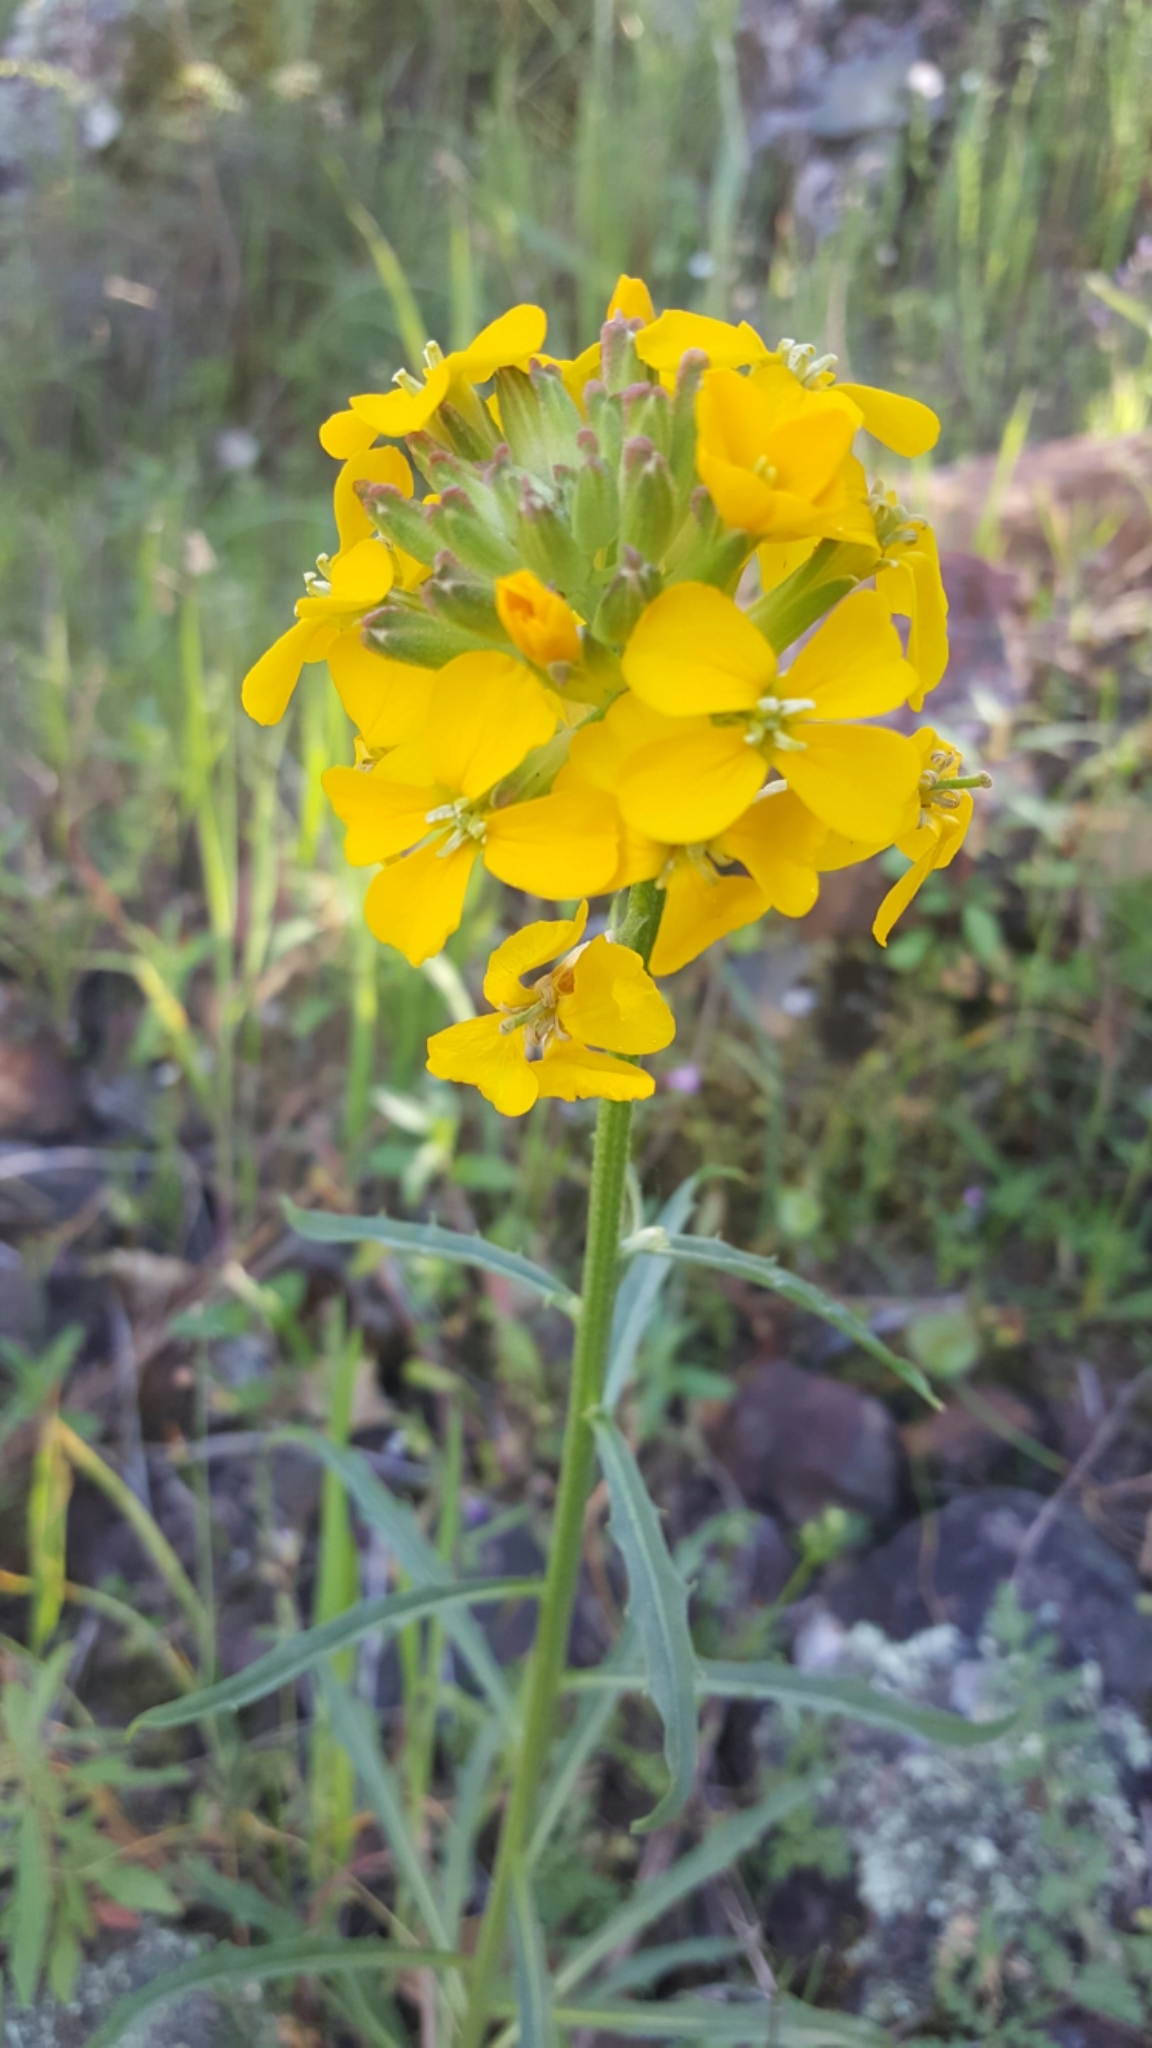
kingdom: Plantae
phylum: Tracheophyta
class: Magnoliopsida
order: Brassicales
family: Brassicaceae
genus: Erysimum
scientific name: Erysimum capitatum
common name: Western wallflower
